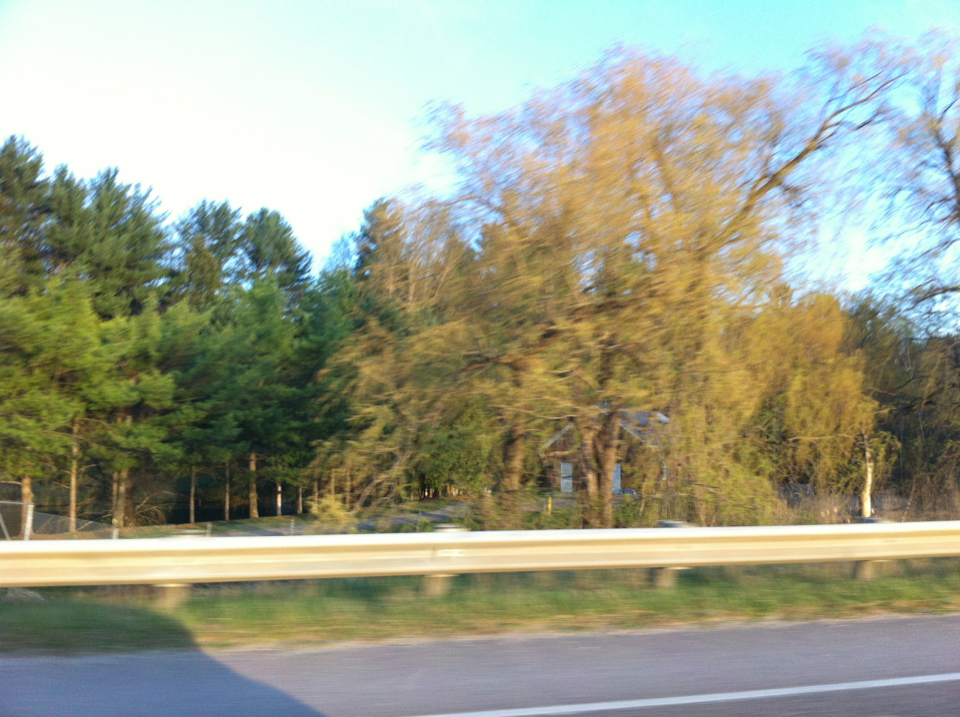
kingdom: Plantae
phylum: Tracheophyta
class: Magnoliopsida
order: Malpighiales
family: Salicaceae
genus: Salix
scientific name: Salix
